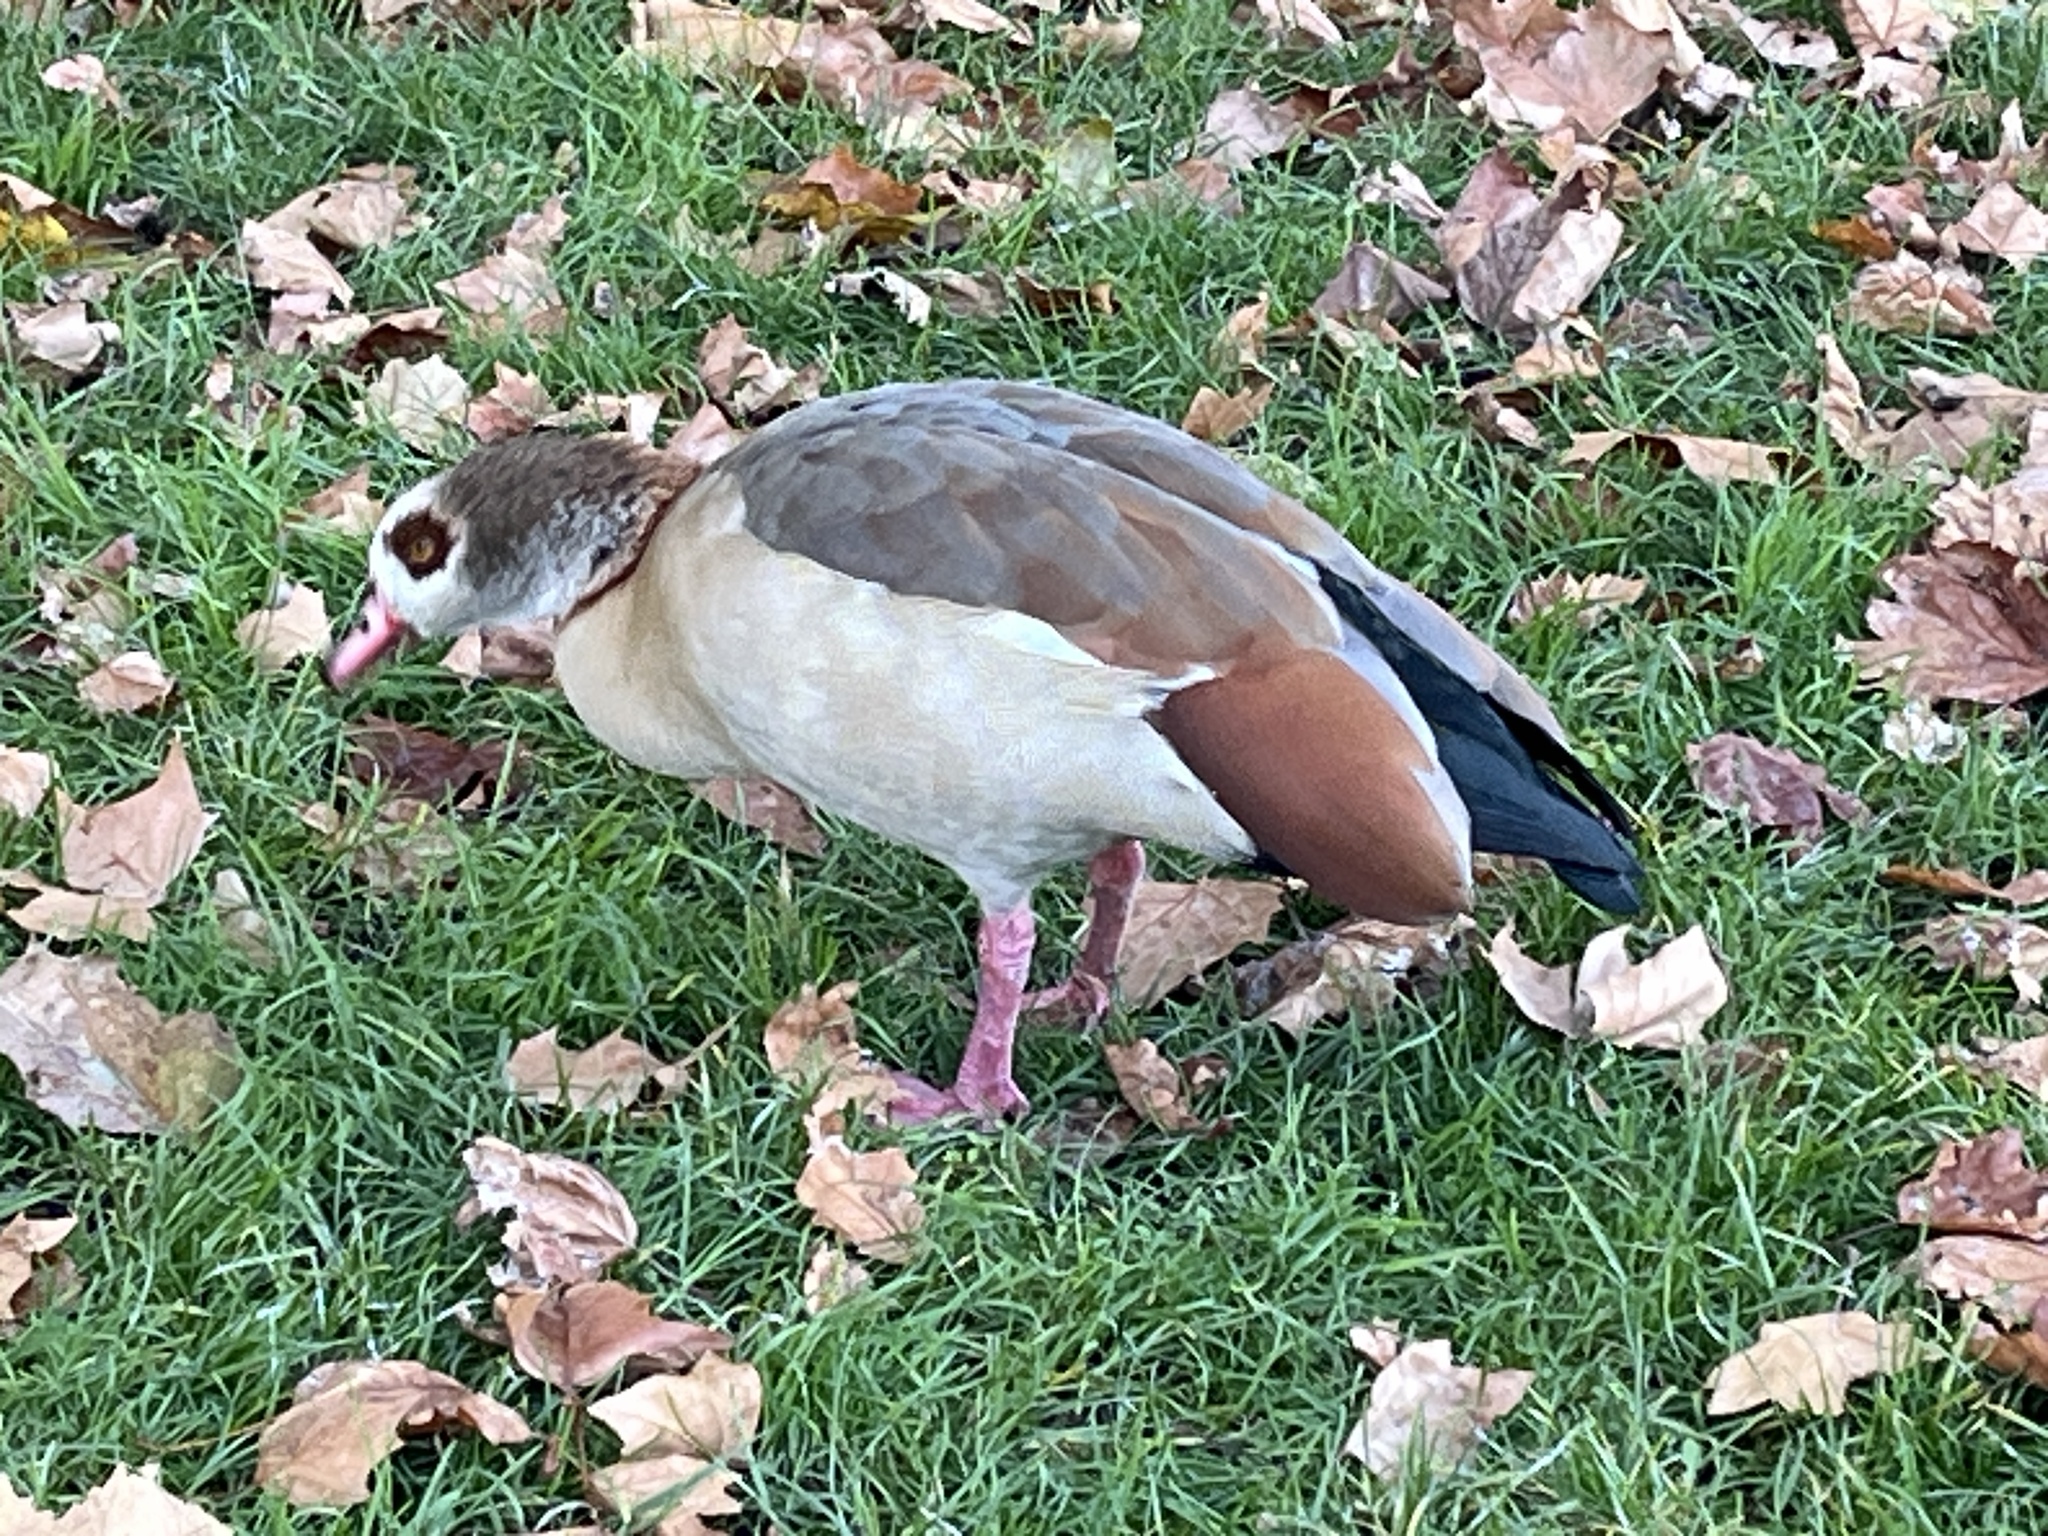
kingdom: Animalia
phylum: Chordata
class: Aves
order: Anseriformes
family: Anatidae
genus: Alopochen
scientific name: Alopochen aegyptiaca
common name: Egyptian goose
